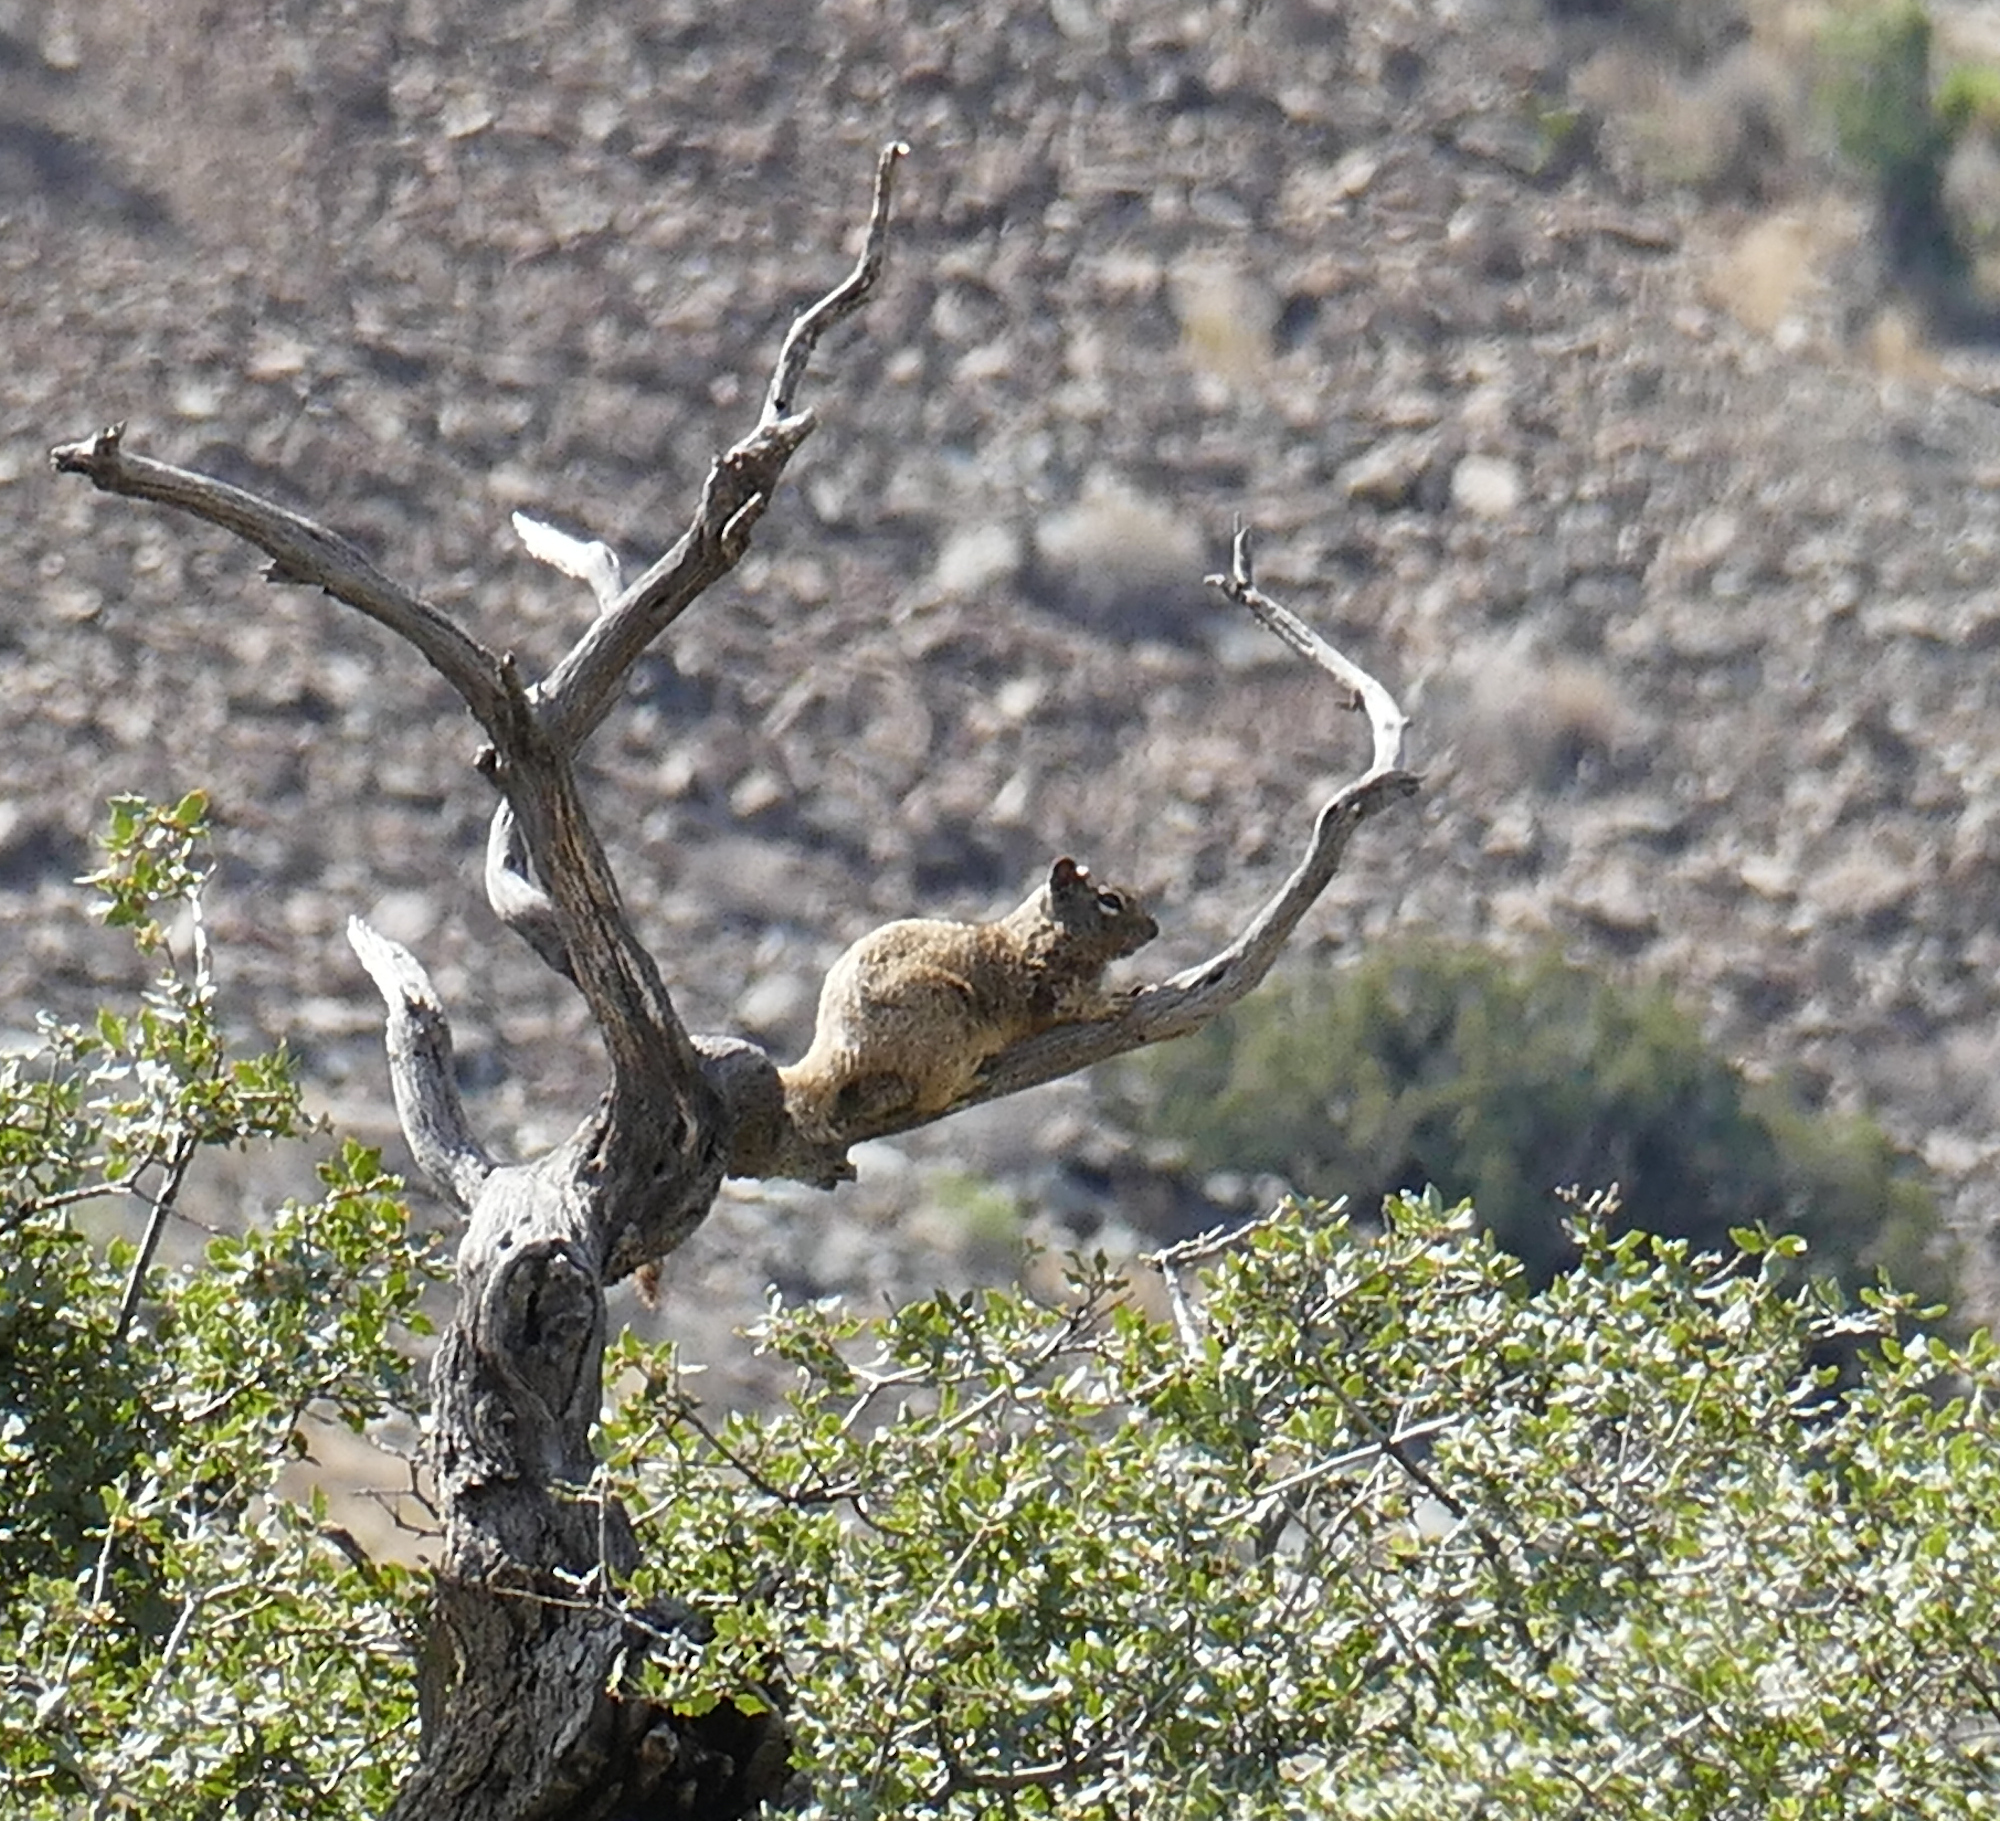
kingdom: Animalia
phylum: Chordata
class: Mammalia
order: Rodentia
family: Sciuridae
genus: Otospermophilus
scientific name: Otospermophilus variegatus
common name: Rock squirrel
